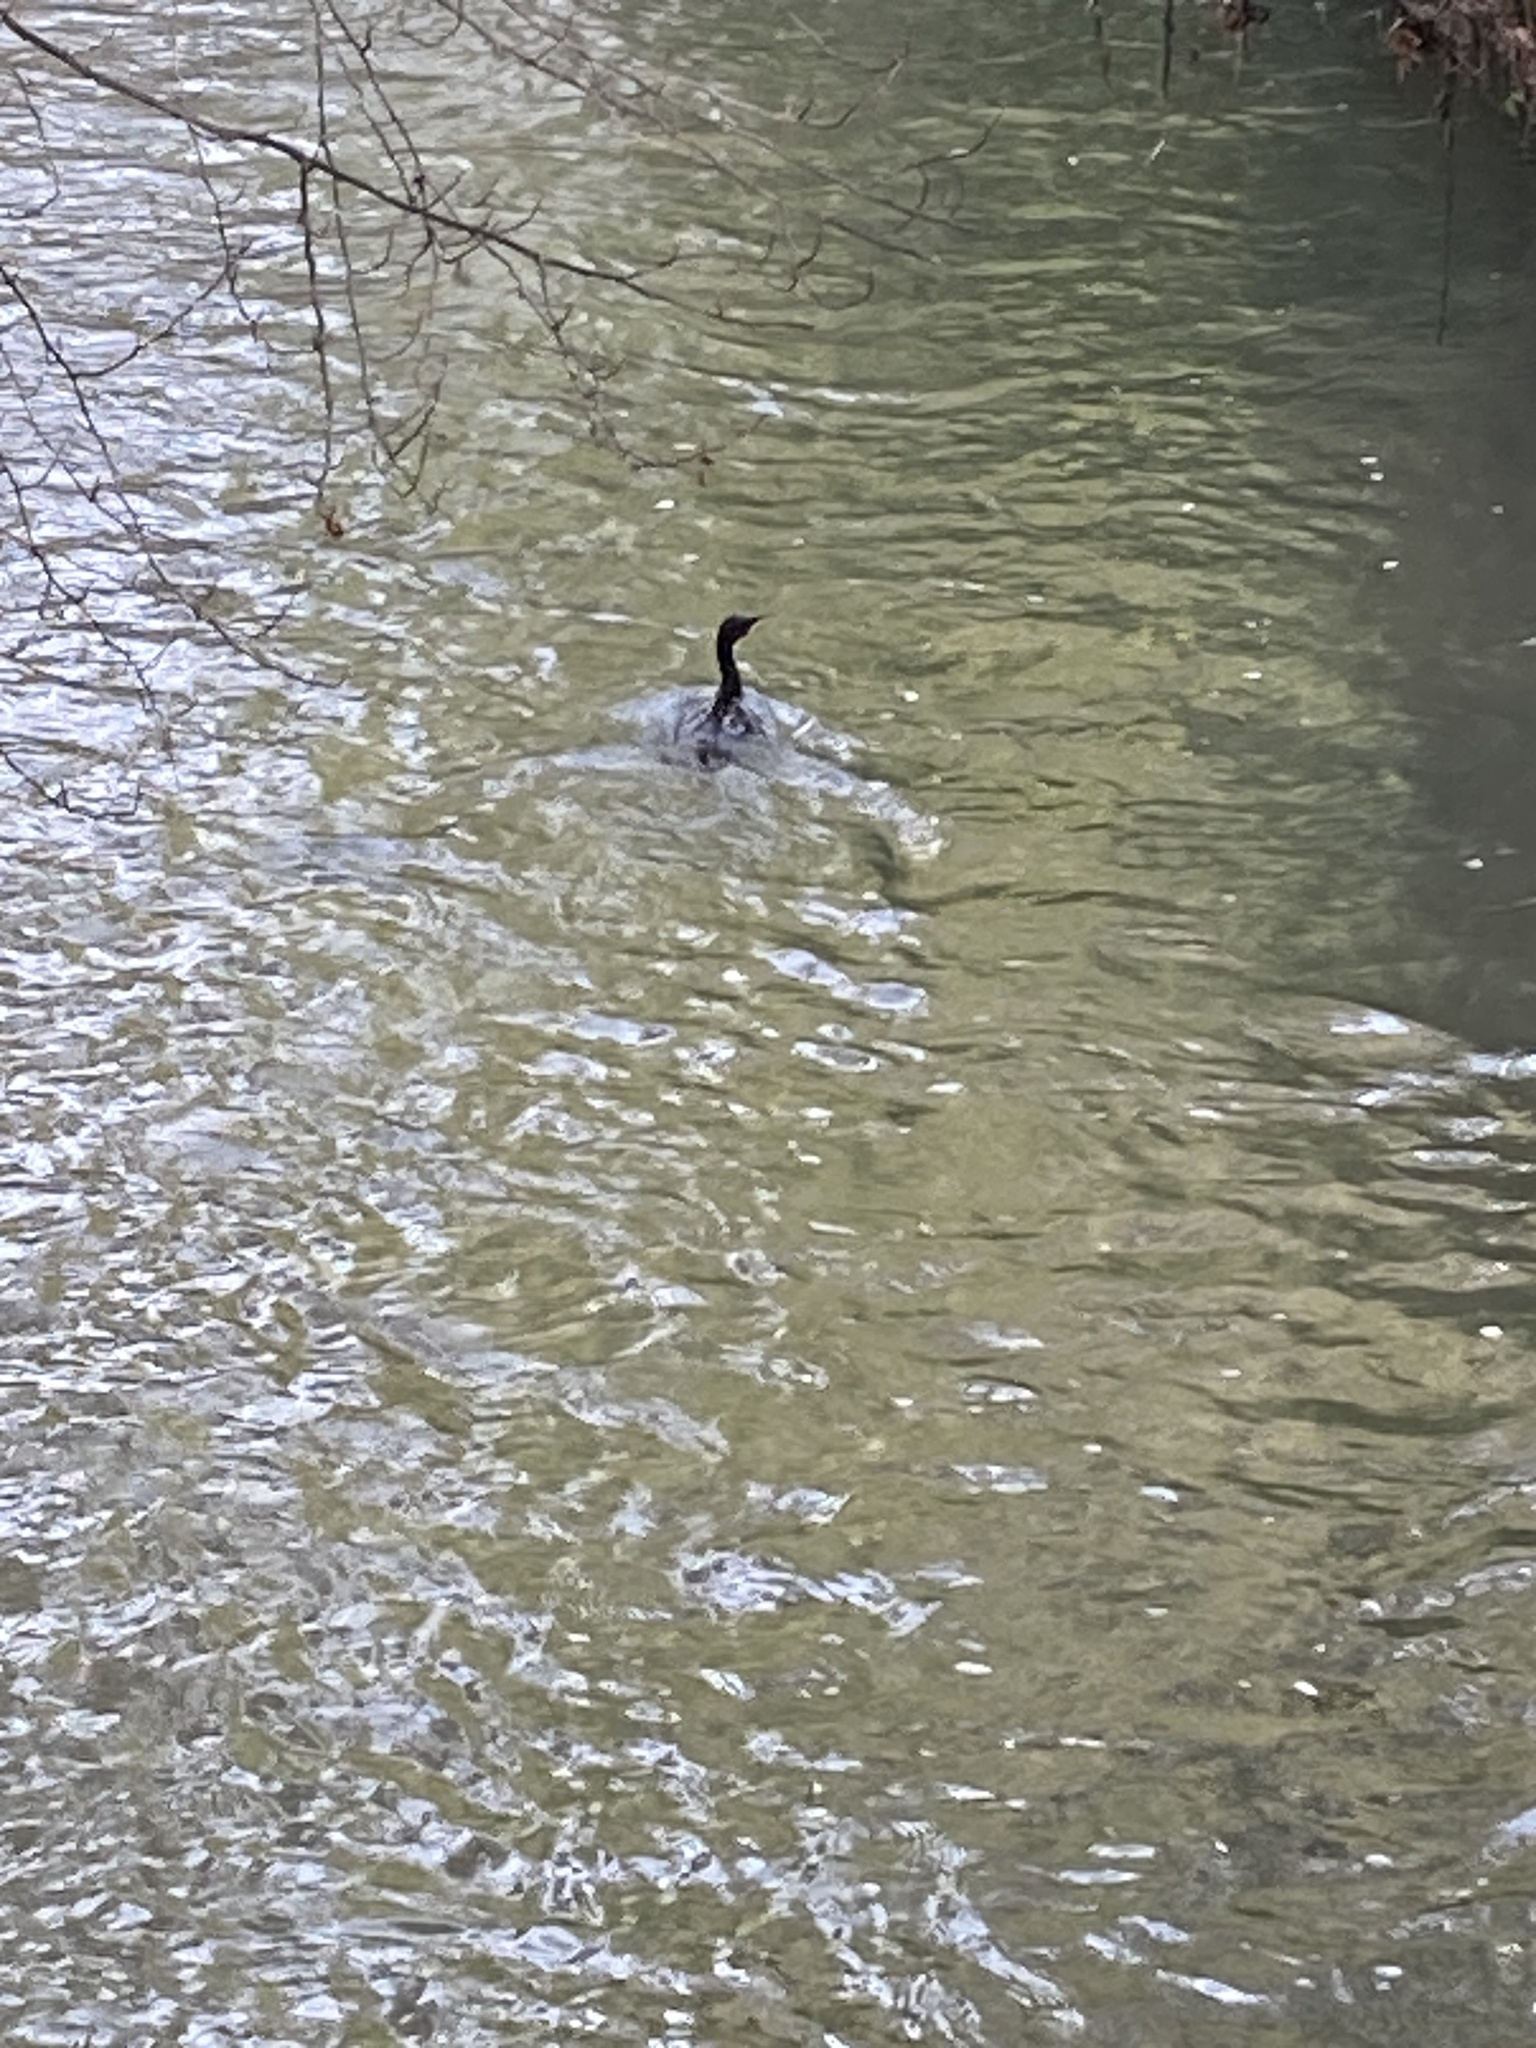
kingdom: Animalia
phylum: Chordata
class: Aves
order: Suliformes
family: Phalacrocoracidae
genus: Phalacrocorax
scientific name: Phalacrocorax varius
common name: Pied cormorant
